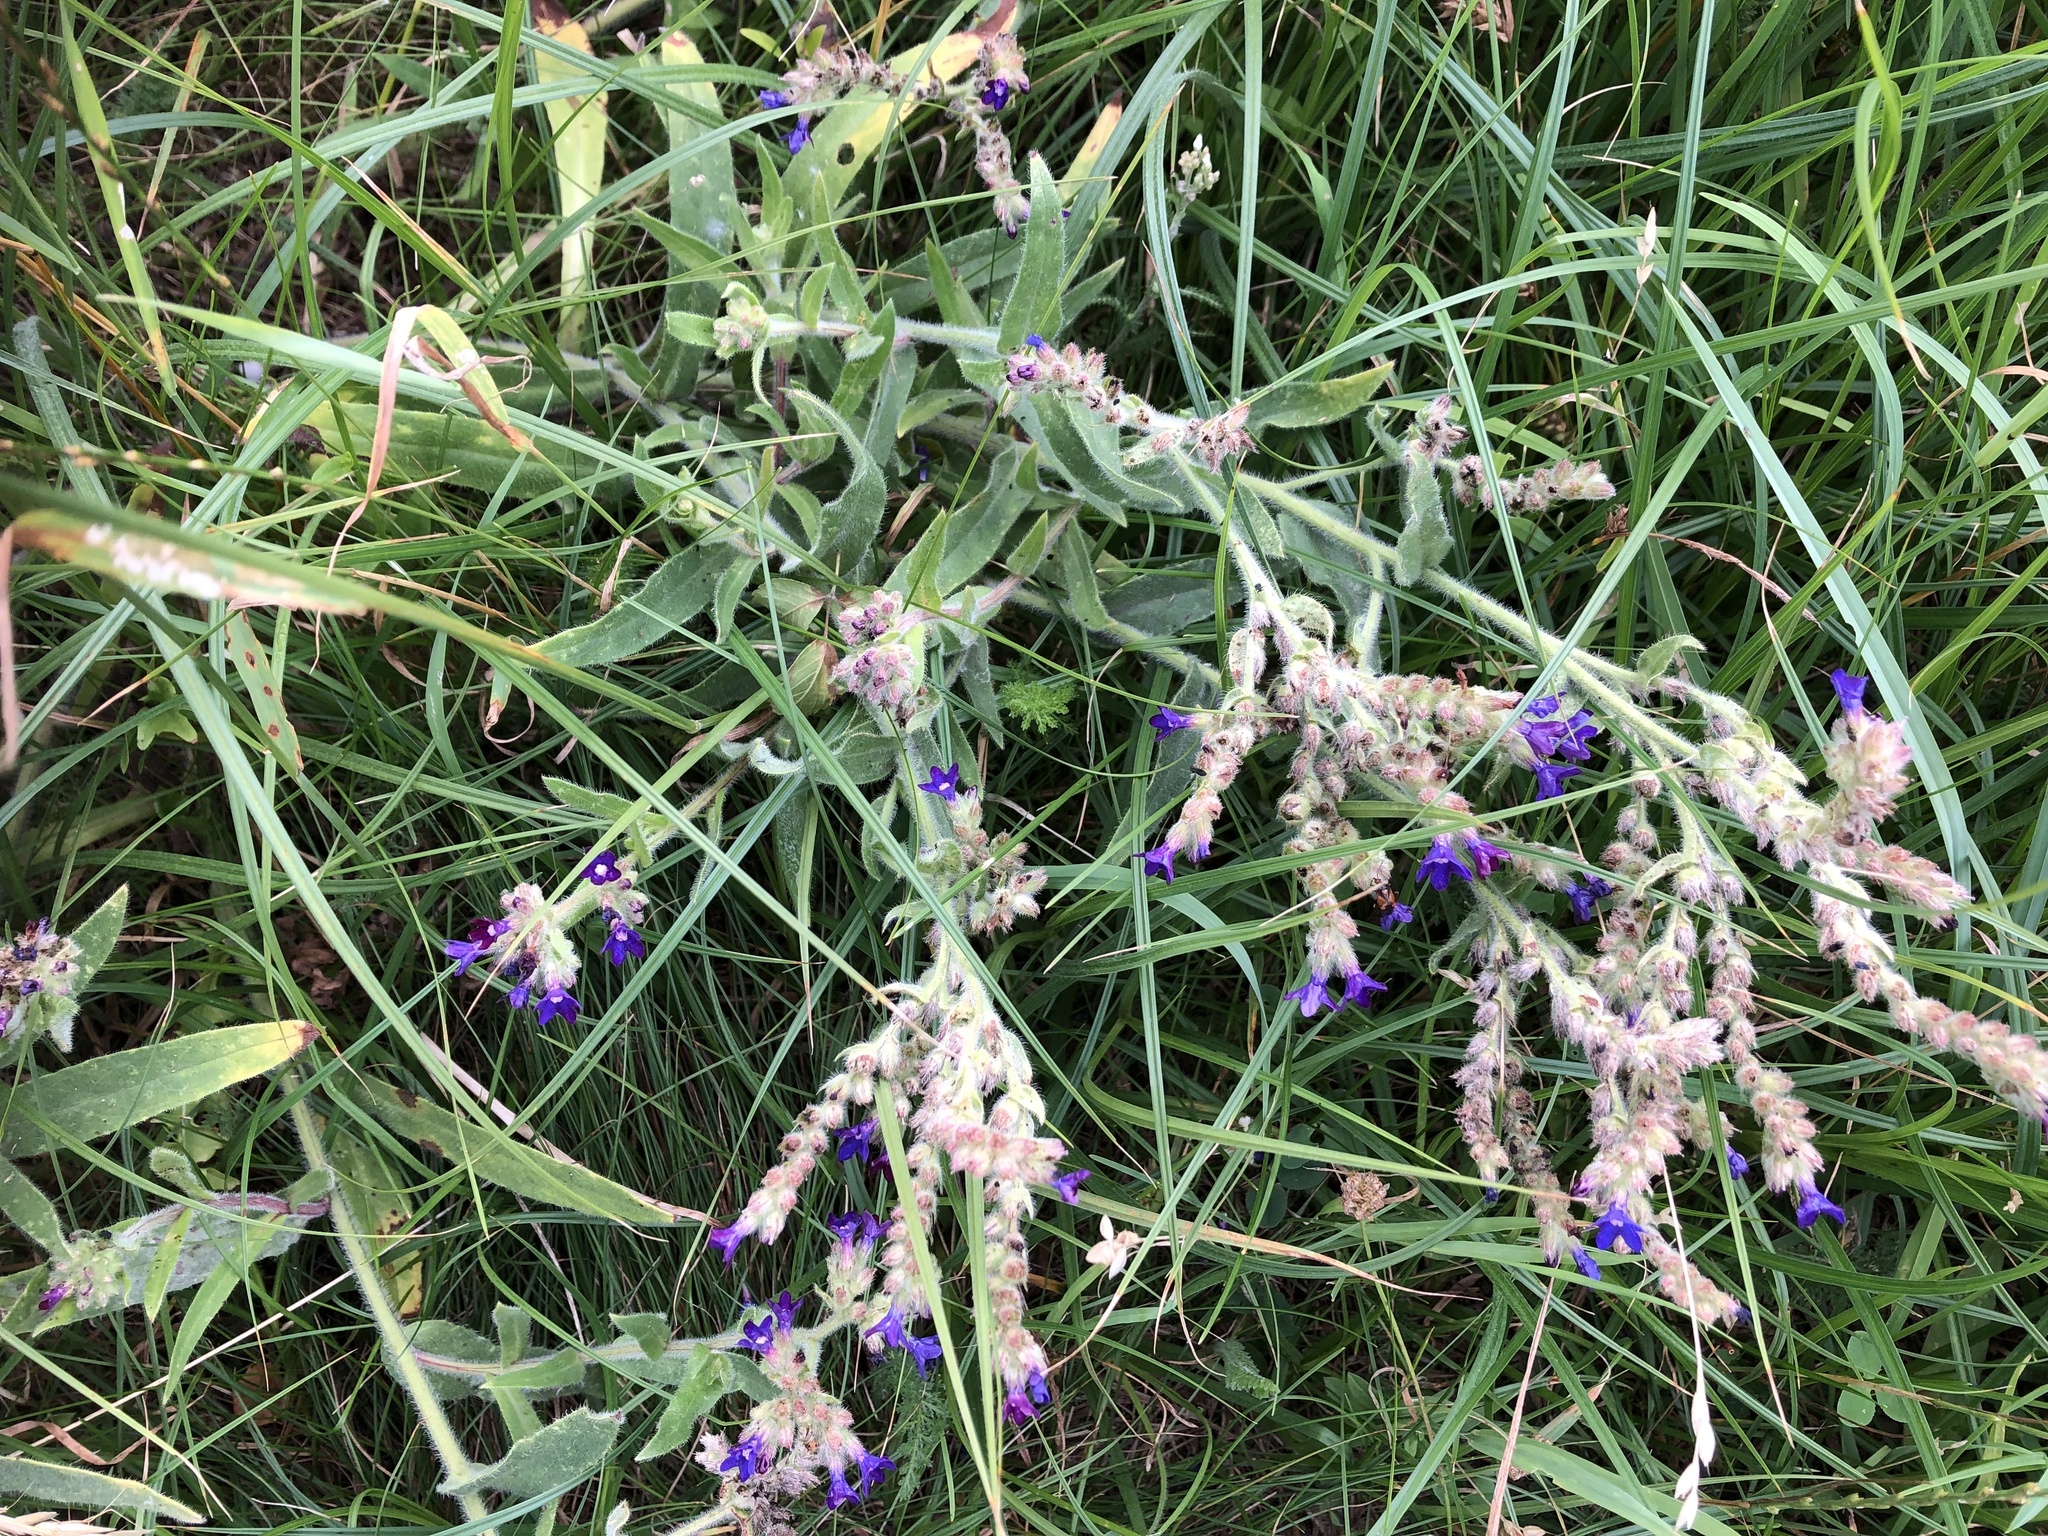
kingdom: Plantae
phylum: Tracheophyta
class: Magnoliopsida
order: Boraginales
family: Boraginaceae
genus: Anchusa
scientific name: Anchusa officinalis
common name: Alkanet
